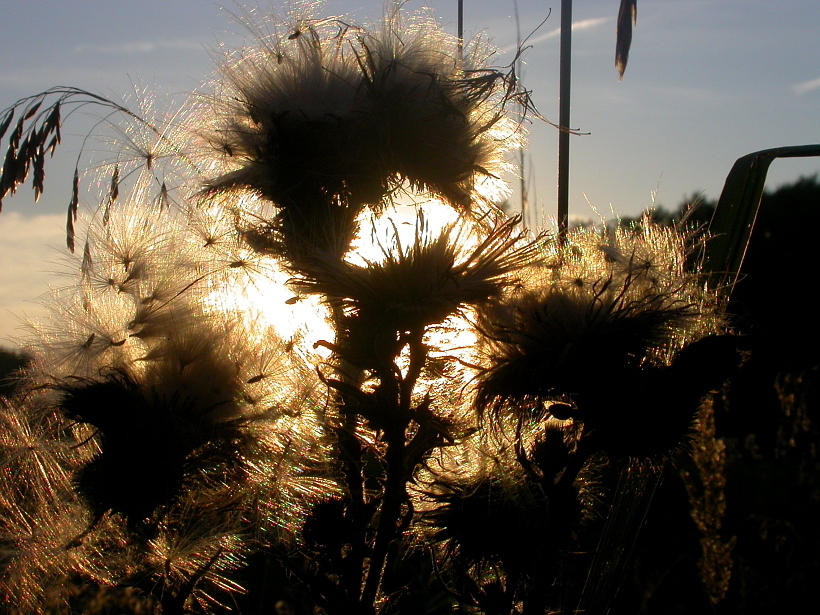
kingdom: Plantae
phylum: Tracheophyta
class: Magnoliopsida
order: Asterales
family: Asteraceae
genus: Cirsium
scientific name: Cirsium vulgare
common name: Bull thistle
